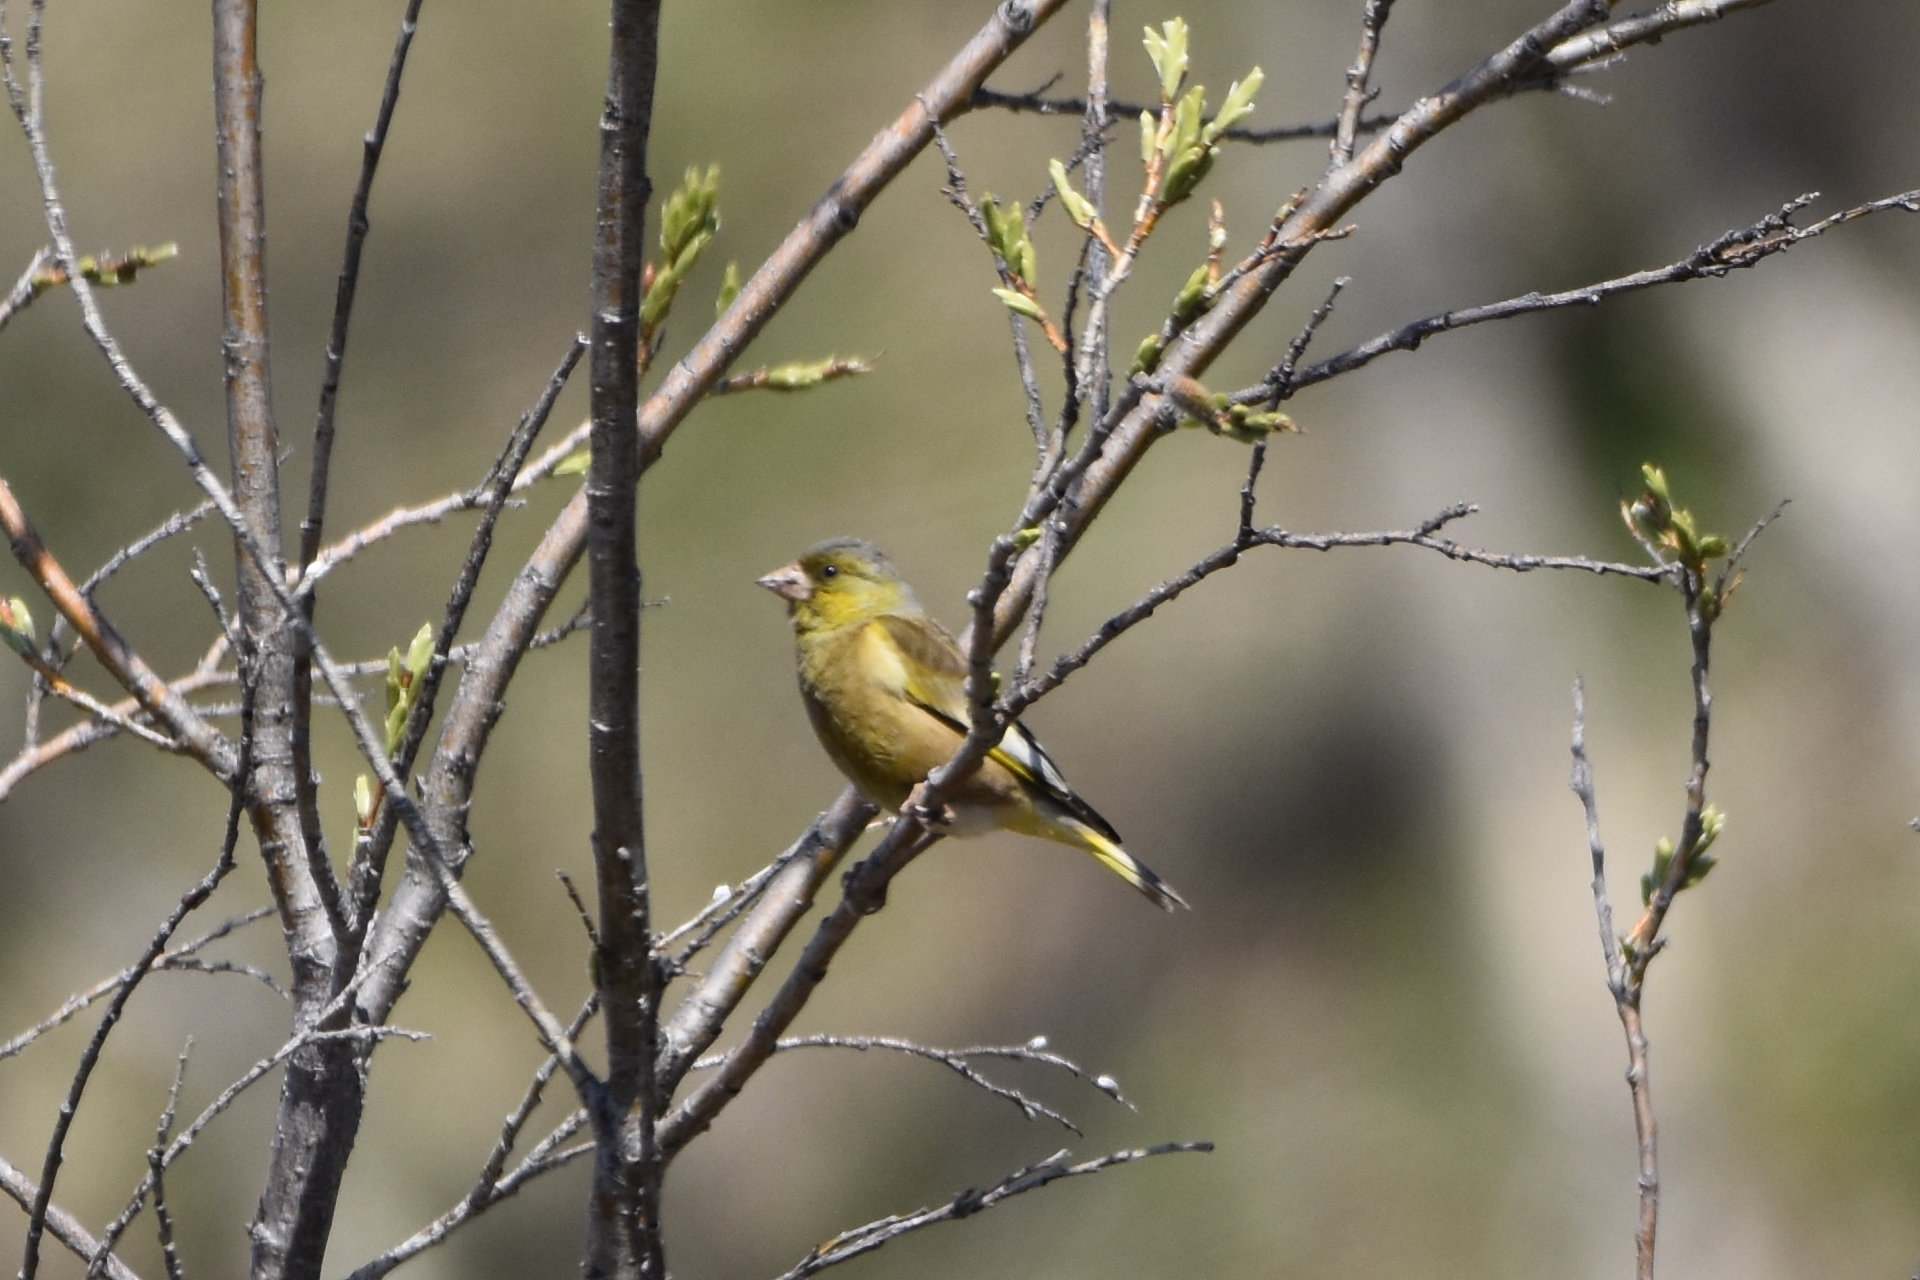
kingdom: Plantae
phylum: Tracheophyta
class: Liliopsida
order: Poales
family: Poaceae
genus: Chloris
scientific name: Chloris sinica
